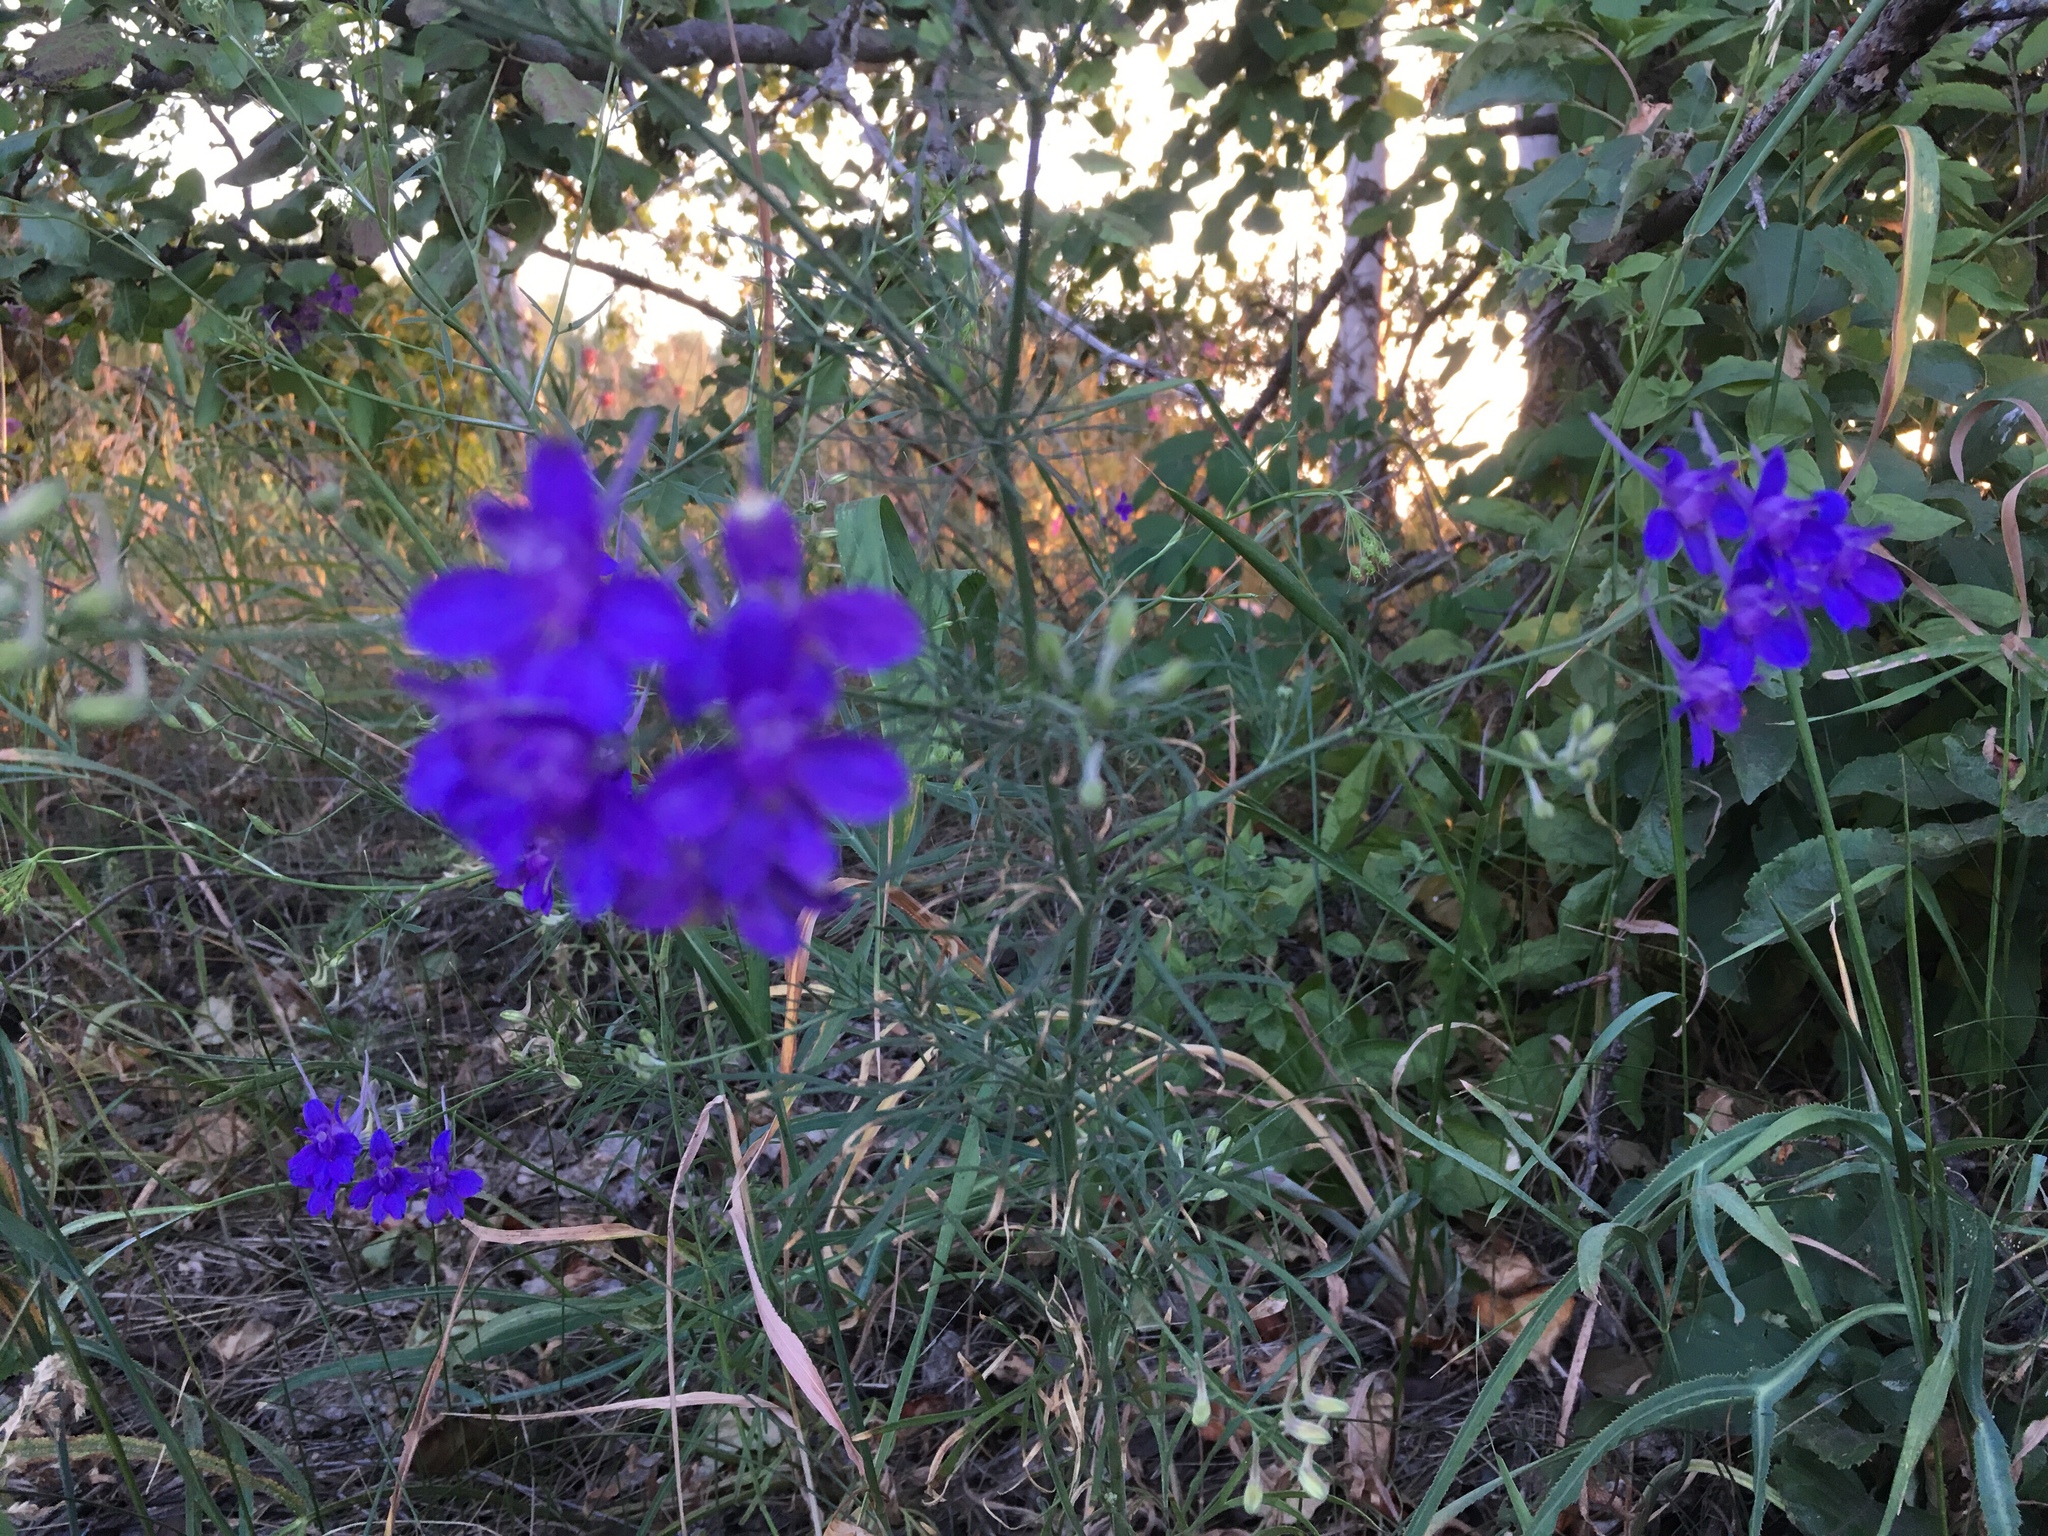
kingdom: Plantae
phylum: Tracheophyta
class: Magnoliopsida
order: Ranunculales
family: Ranunculaceae
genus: Delphinium
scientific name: Delphinium consolida
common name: Branching larkspur
